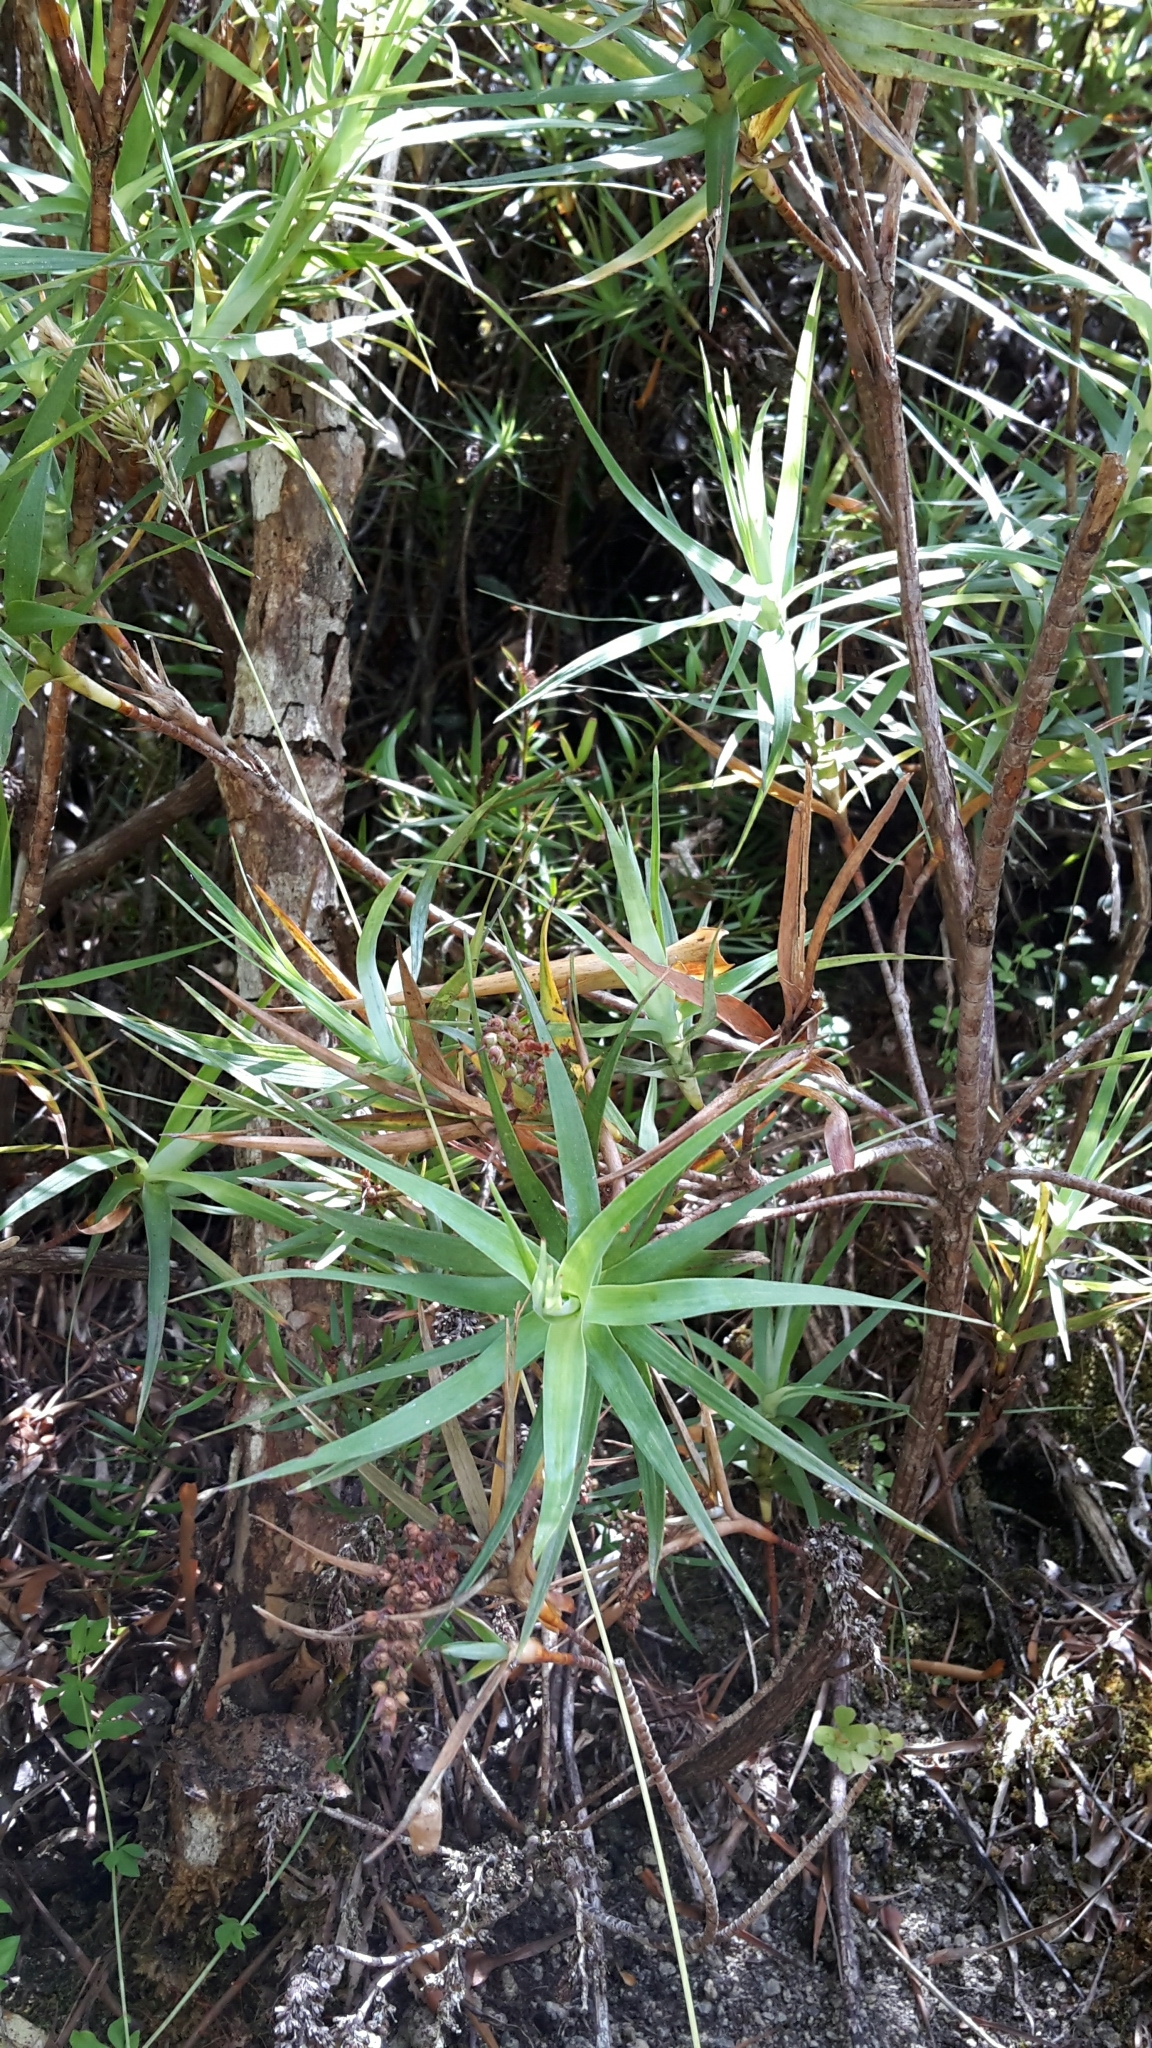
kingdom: Plantae
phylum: Tracheophyta
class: Magnoliopsida
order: Ericales
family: Ericaceae
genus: Dracophyllum
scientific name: Dracophyllum strictum
